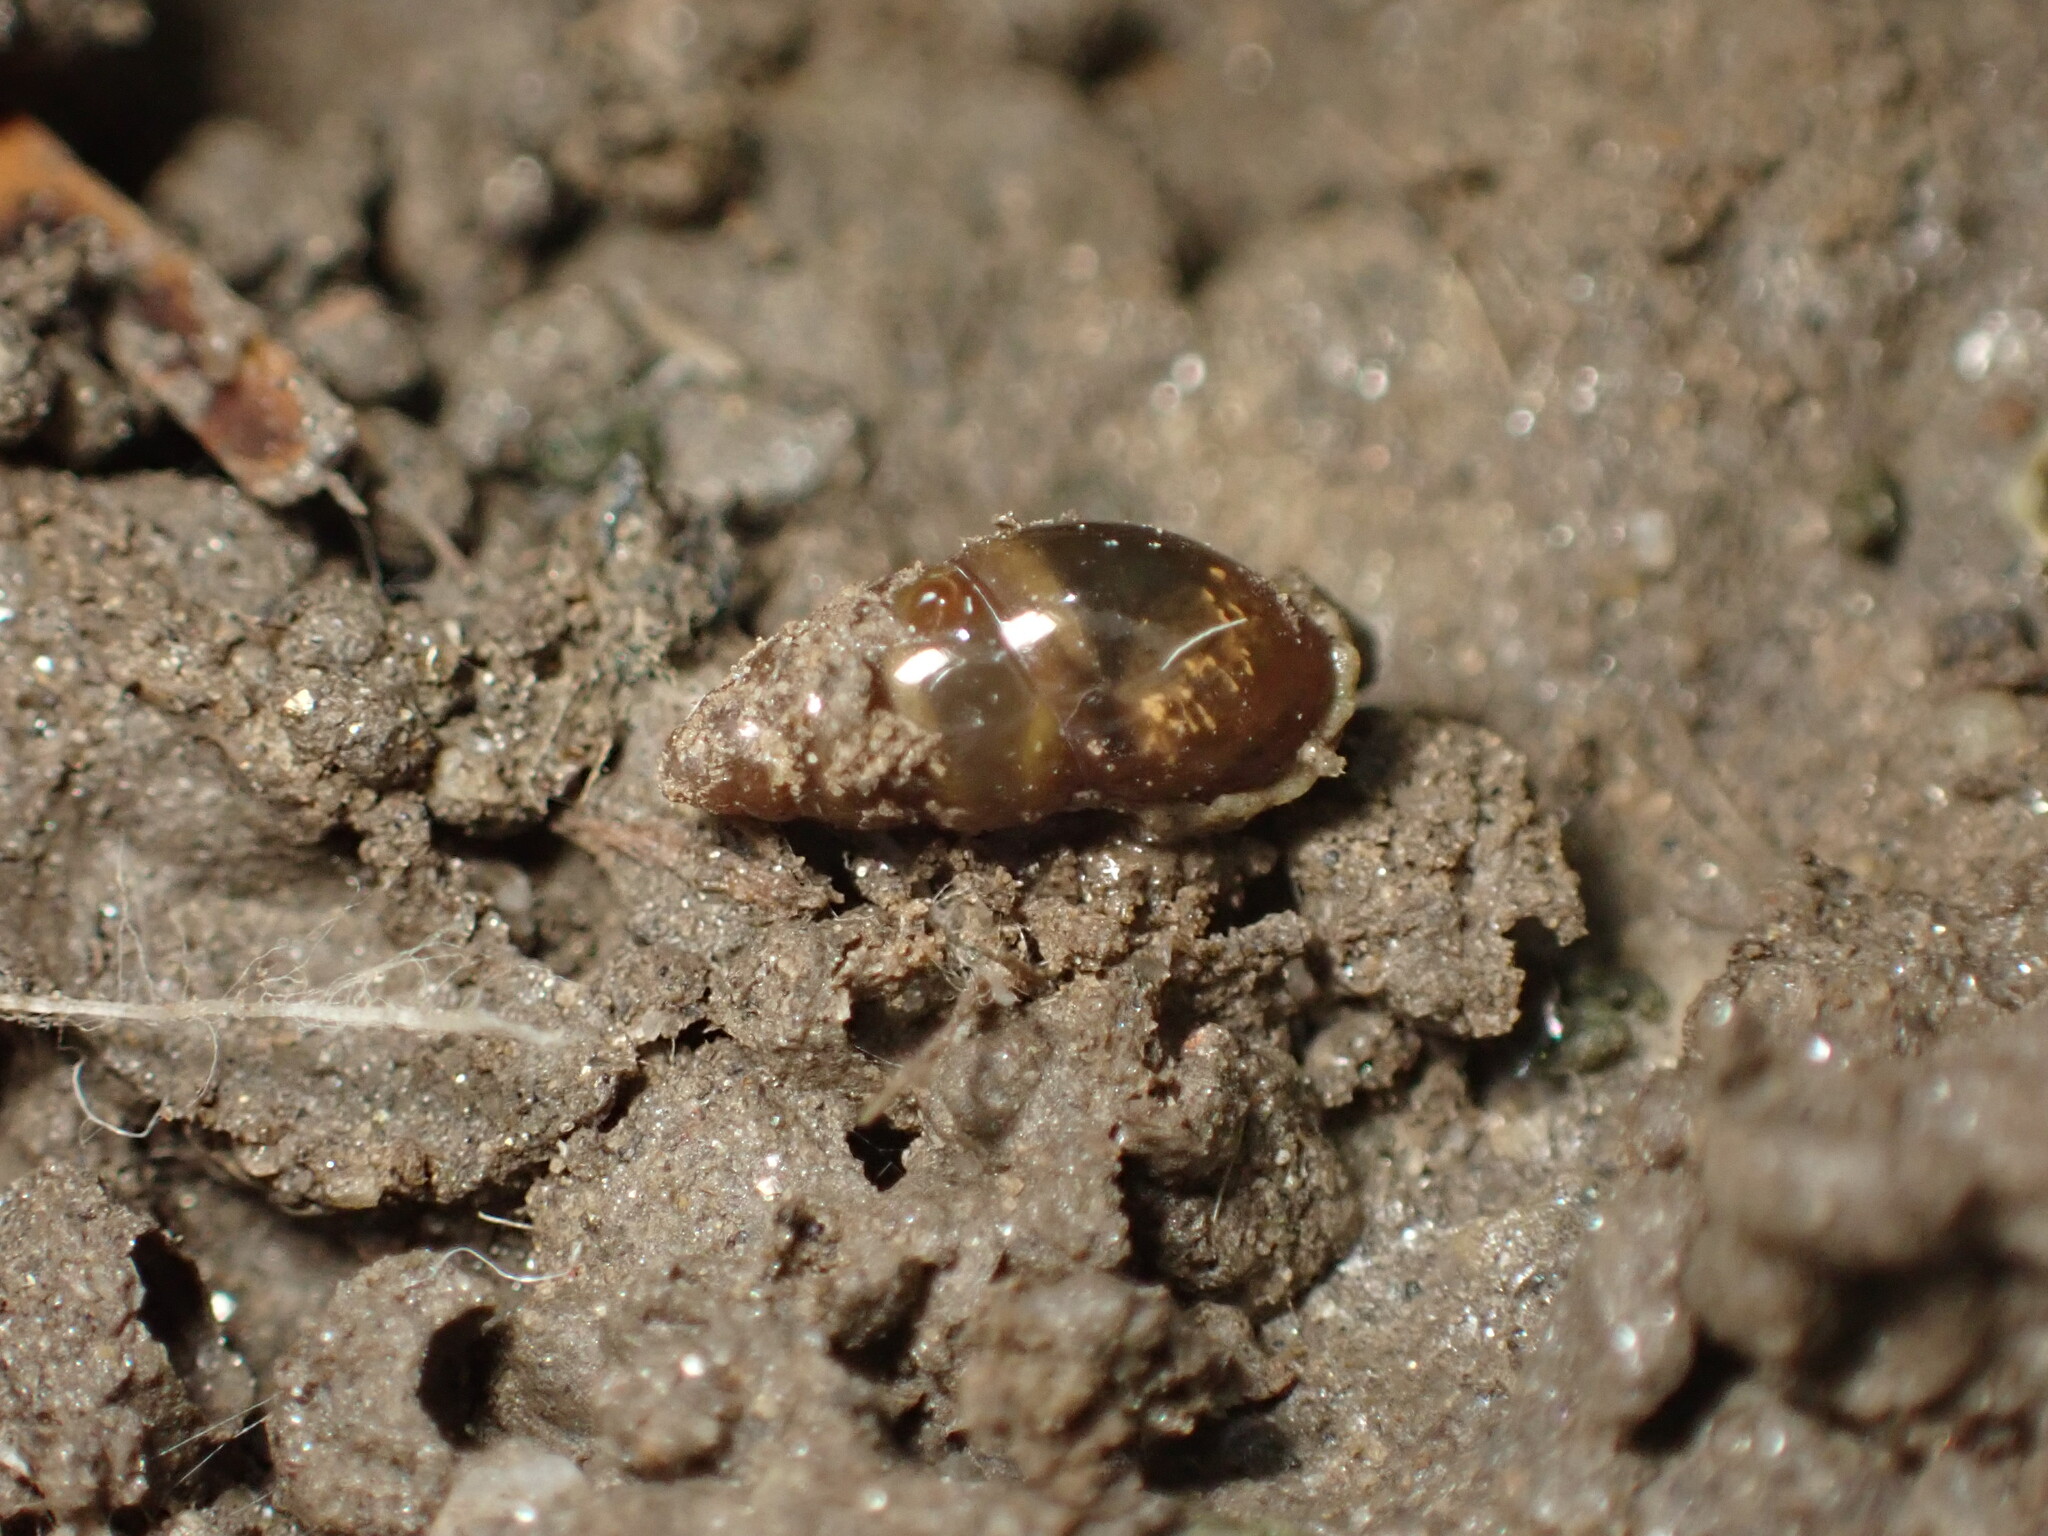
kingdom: Animalia
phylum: Mollusca
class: Gastropoda
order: Stylommatophora
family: Cochlicopidae
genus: Cochlicopa
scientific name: Cochlicopa lubrica
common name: Glossy pillar snail
